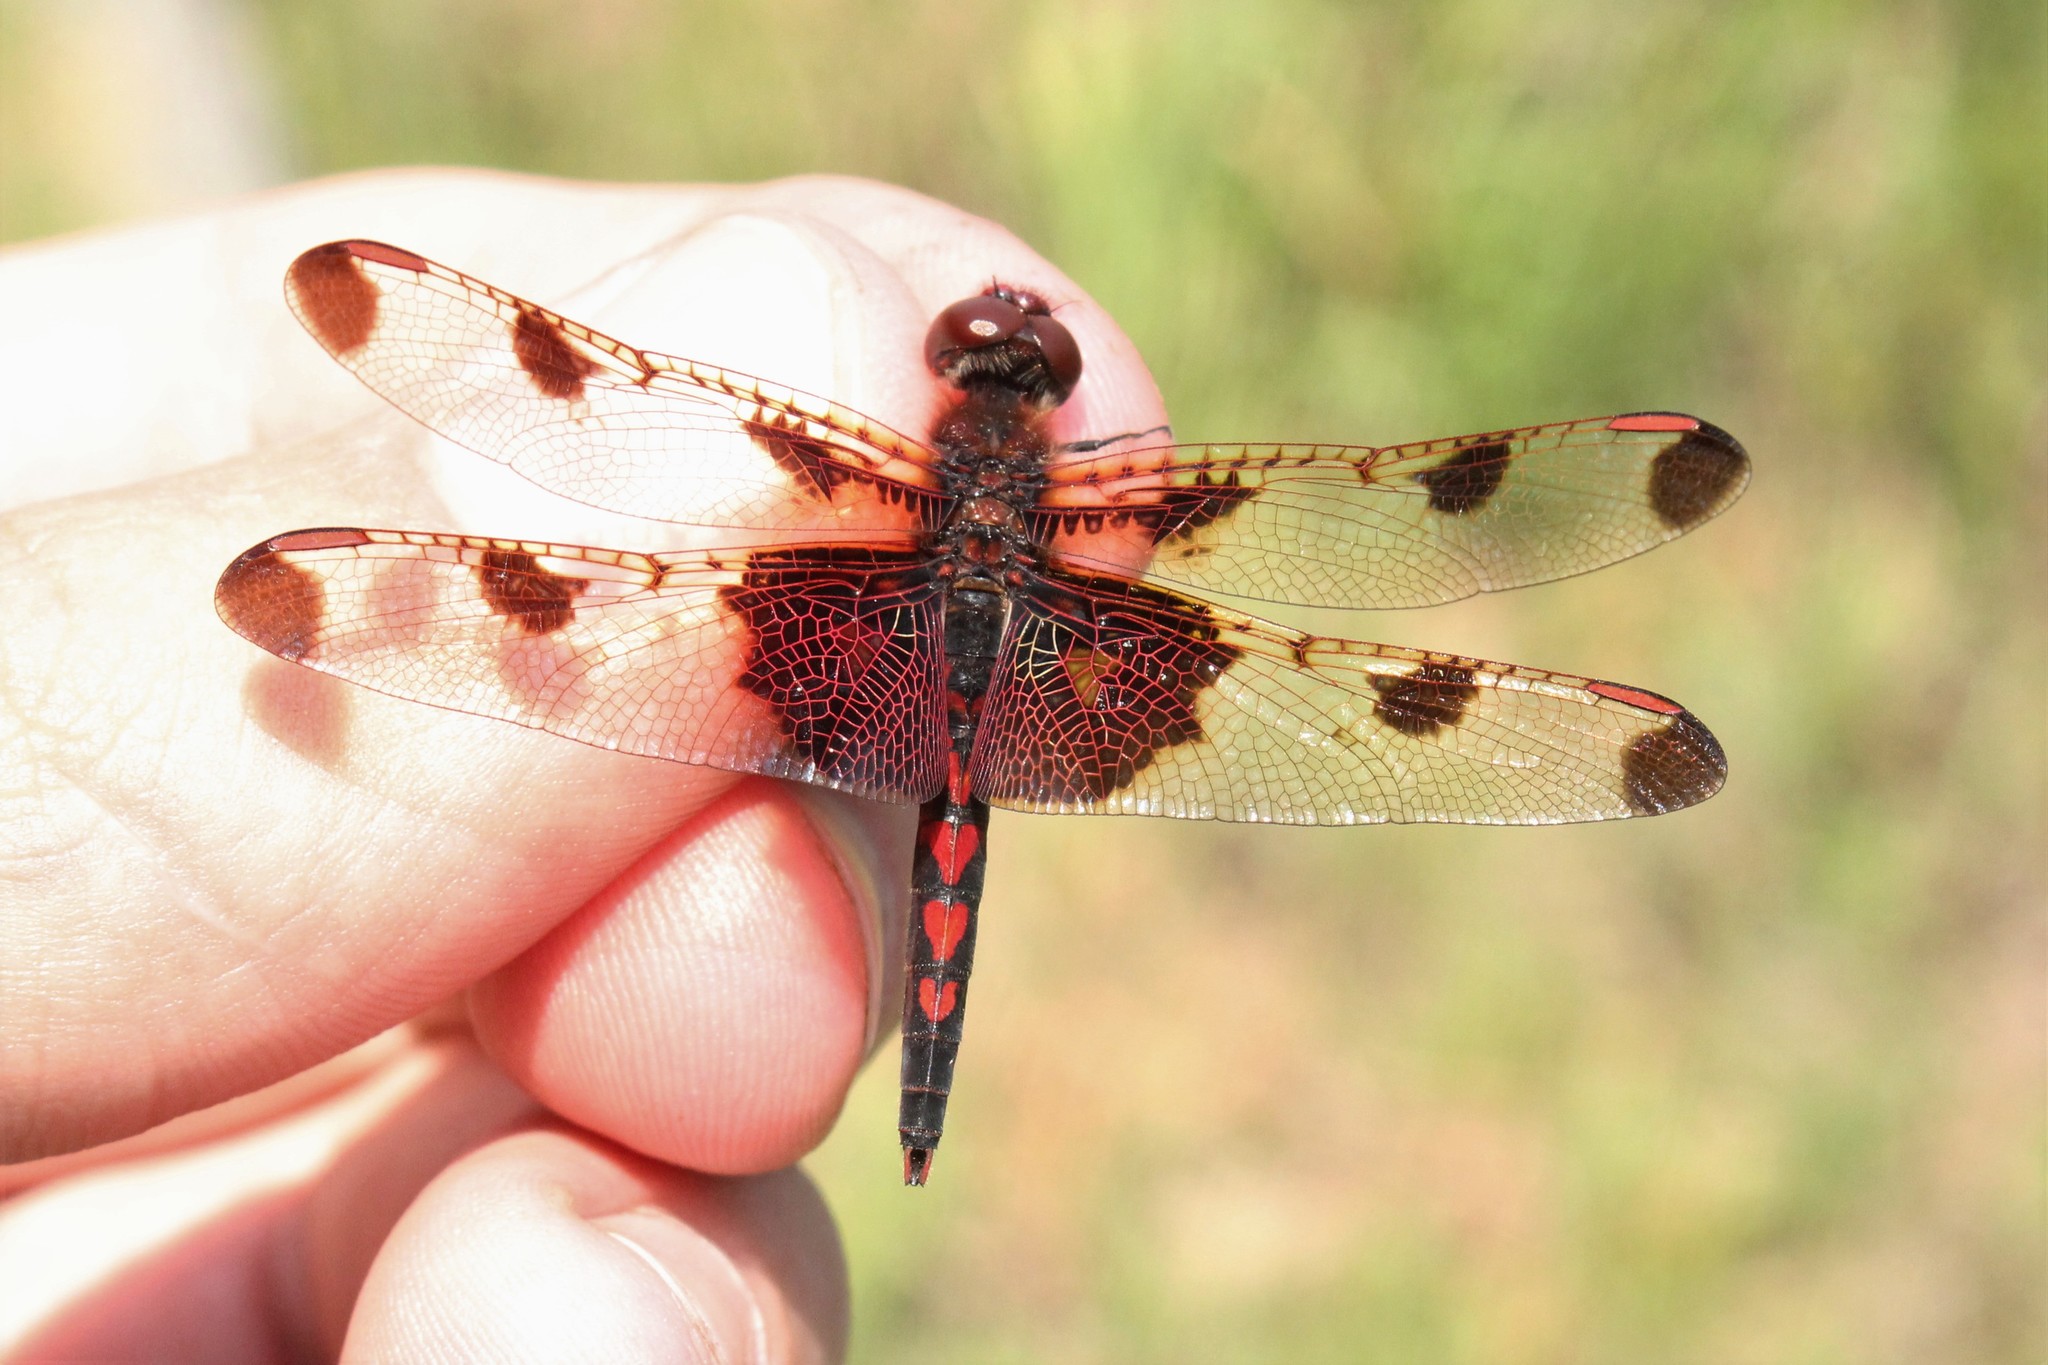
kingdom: Animalia
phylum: Arthropoda
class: Insecta
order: Odonata
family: Libellulidae
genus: Celithemis
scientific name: Celithemis elisa
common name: Calico pennant
